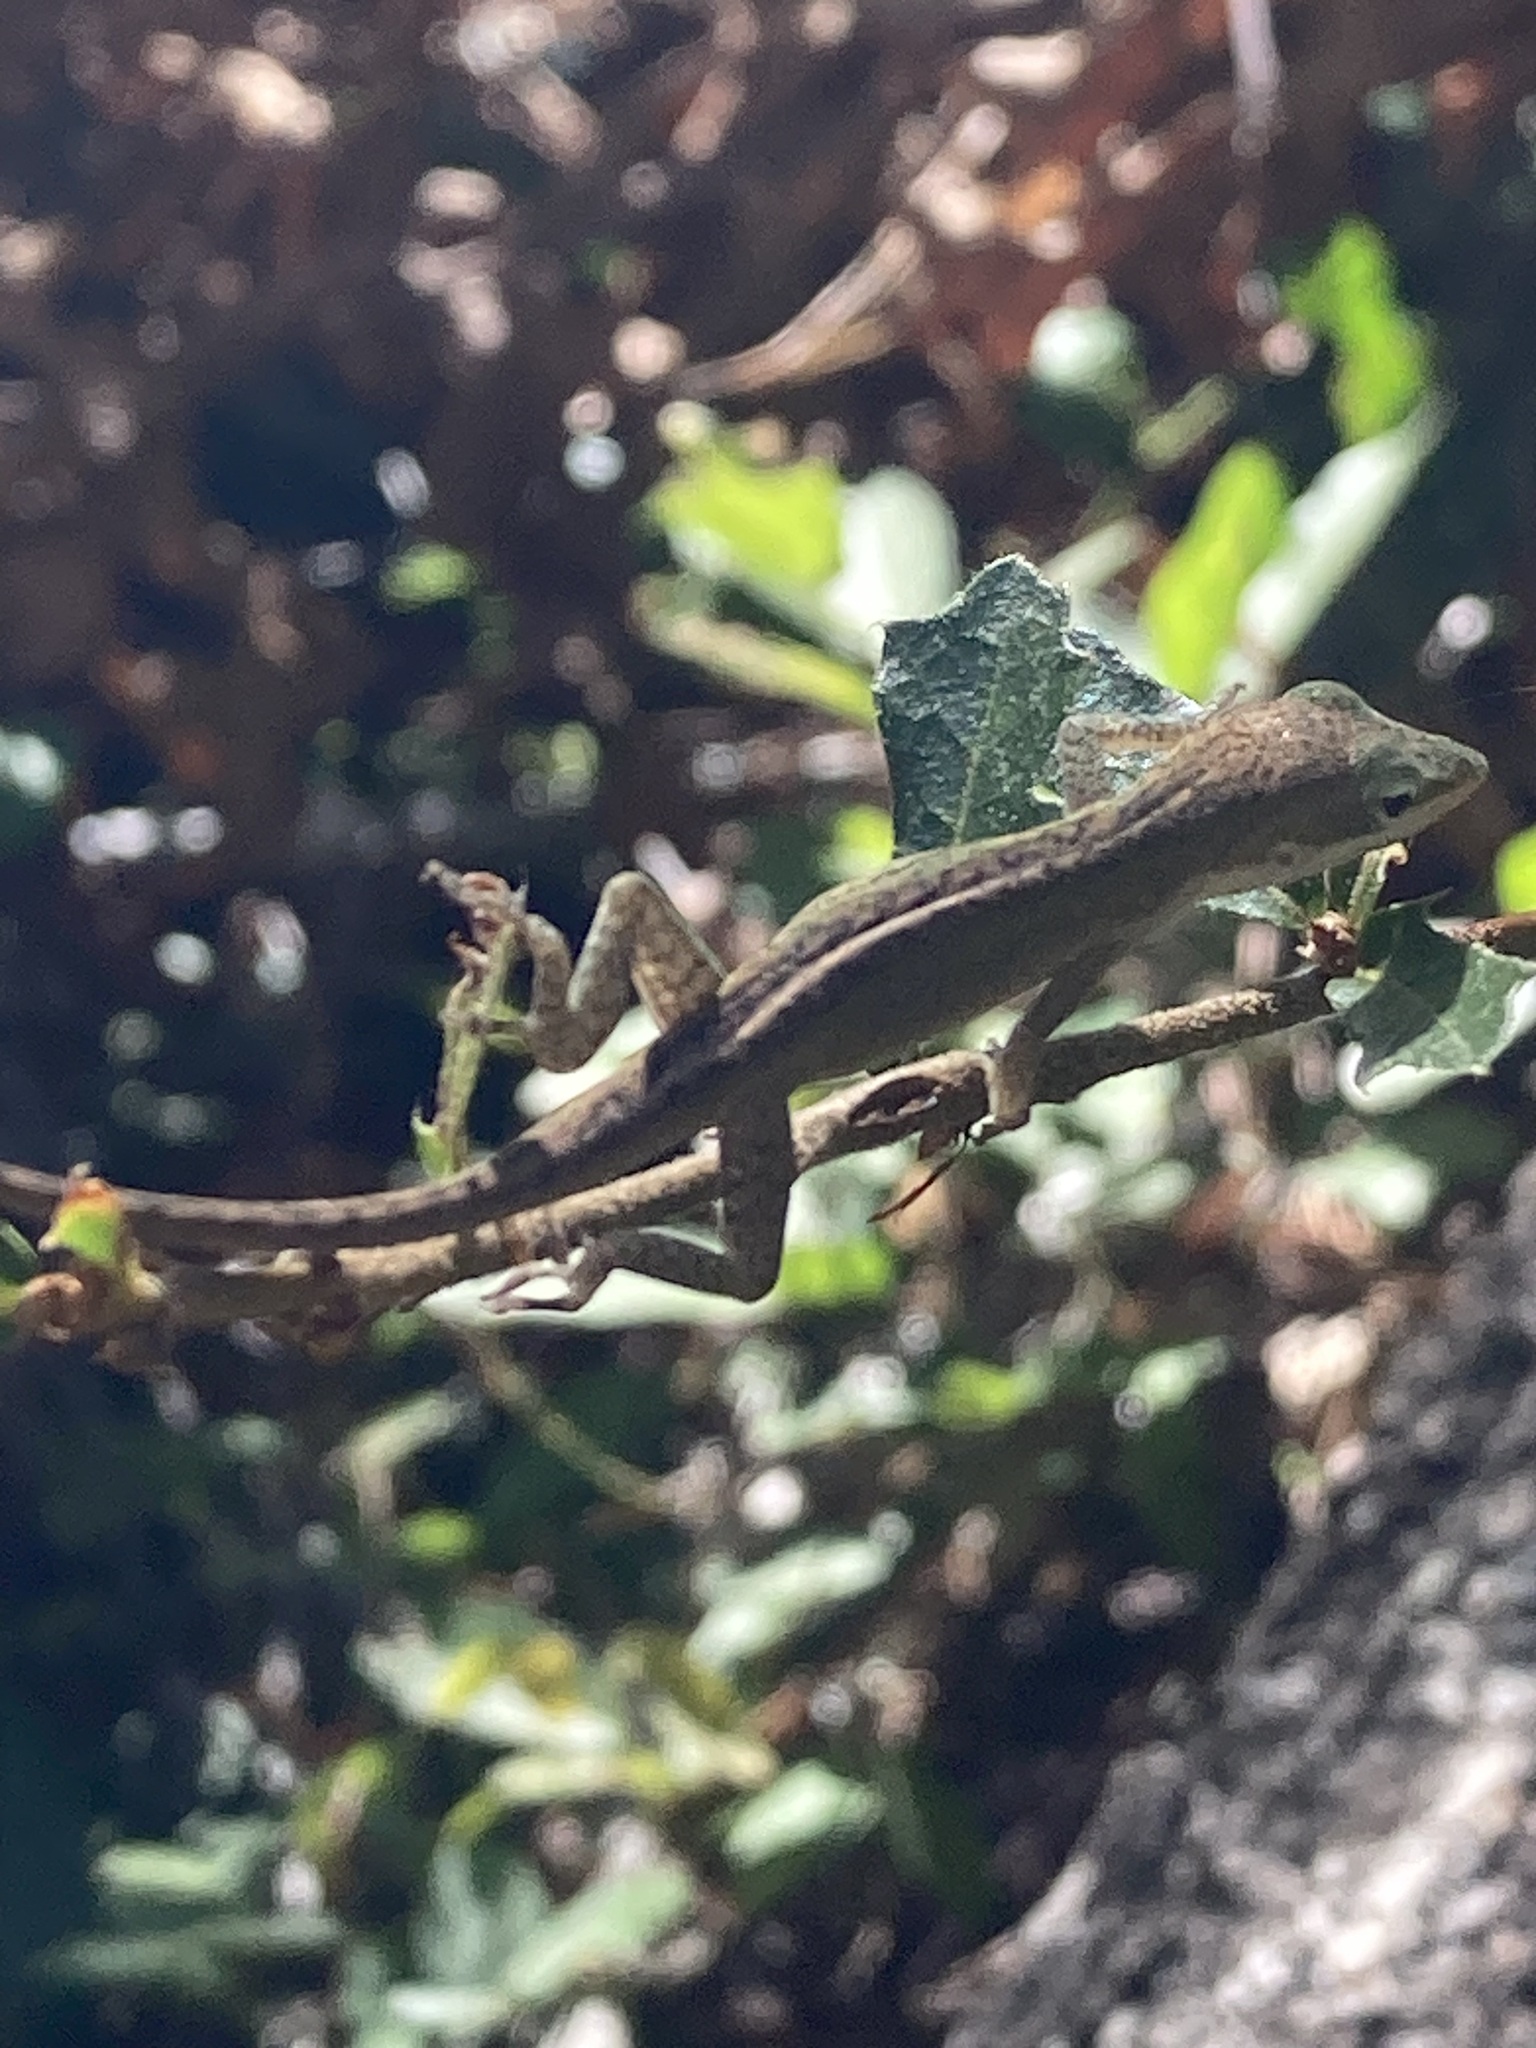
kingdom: Animalia
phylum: Chordata
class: Squamata
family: Dactyloidae
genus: Anolis
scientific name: Anolis carolinensis
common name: Green anole
